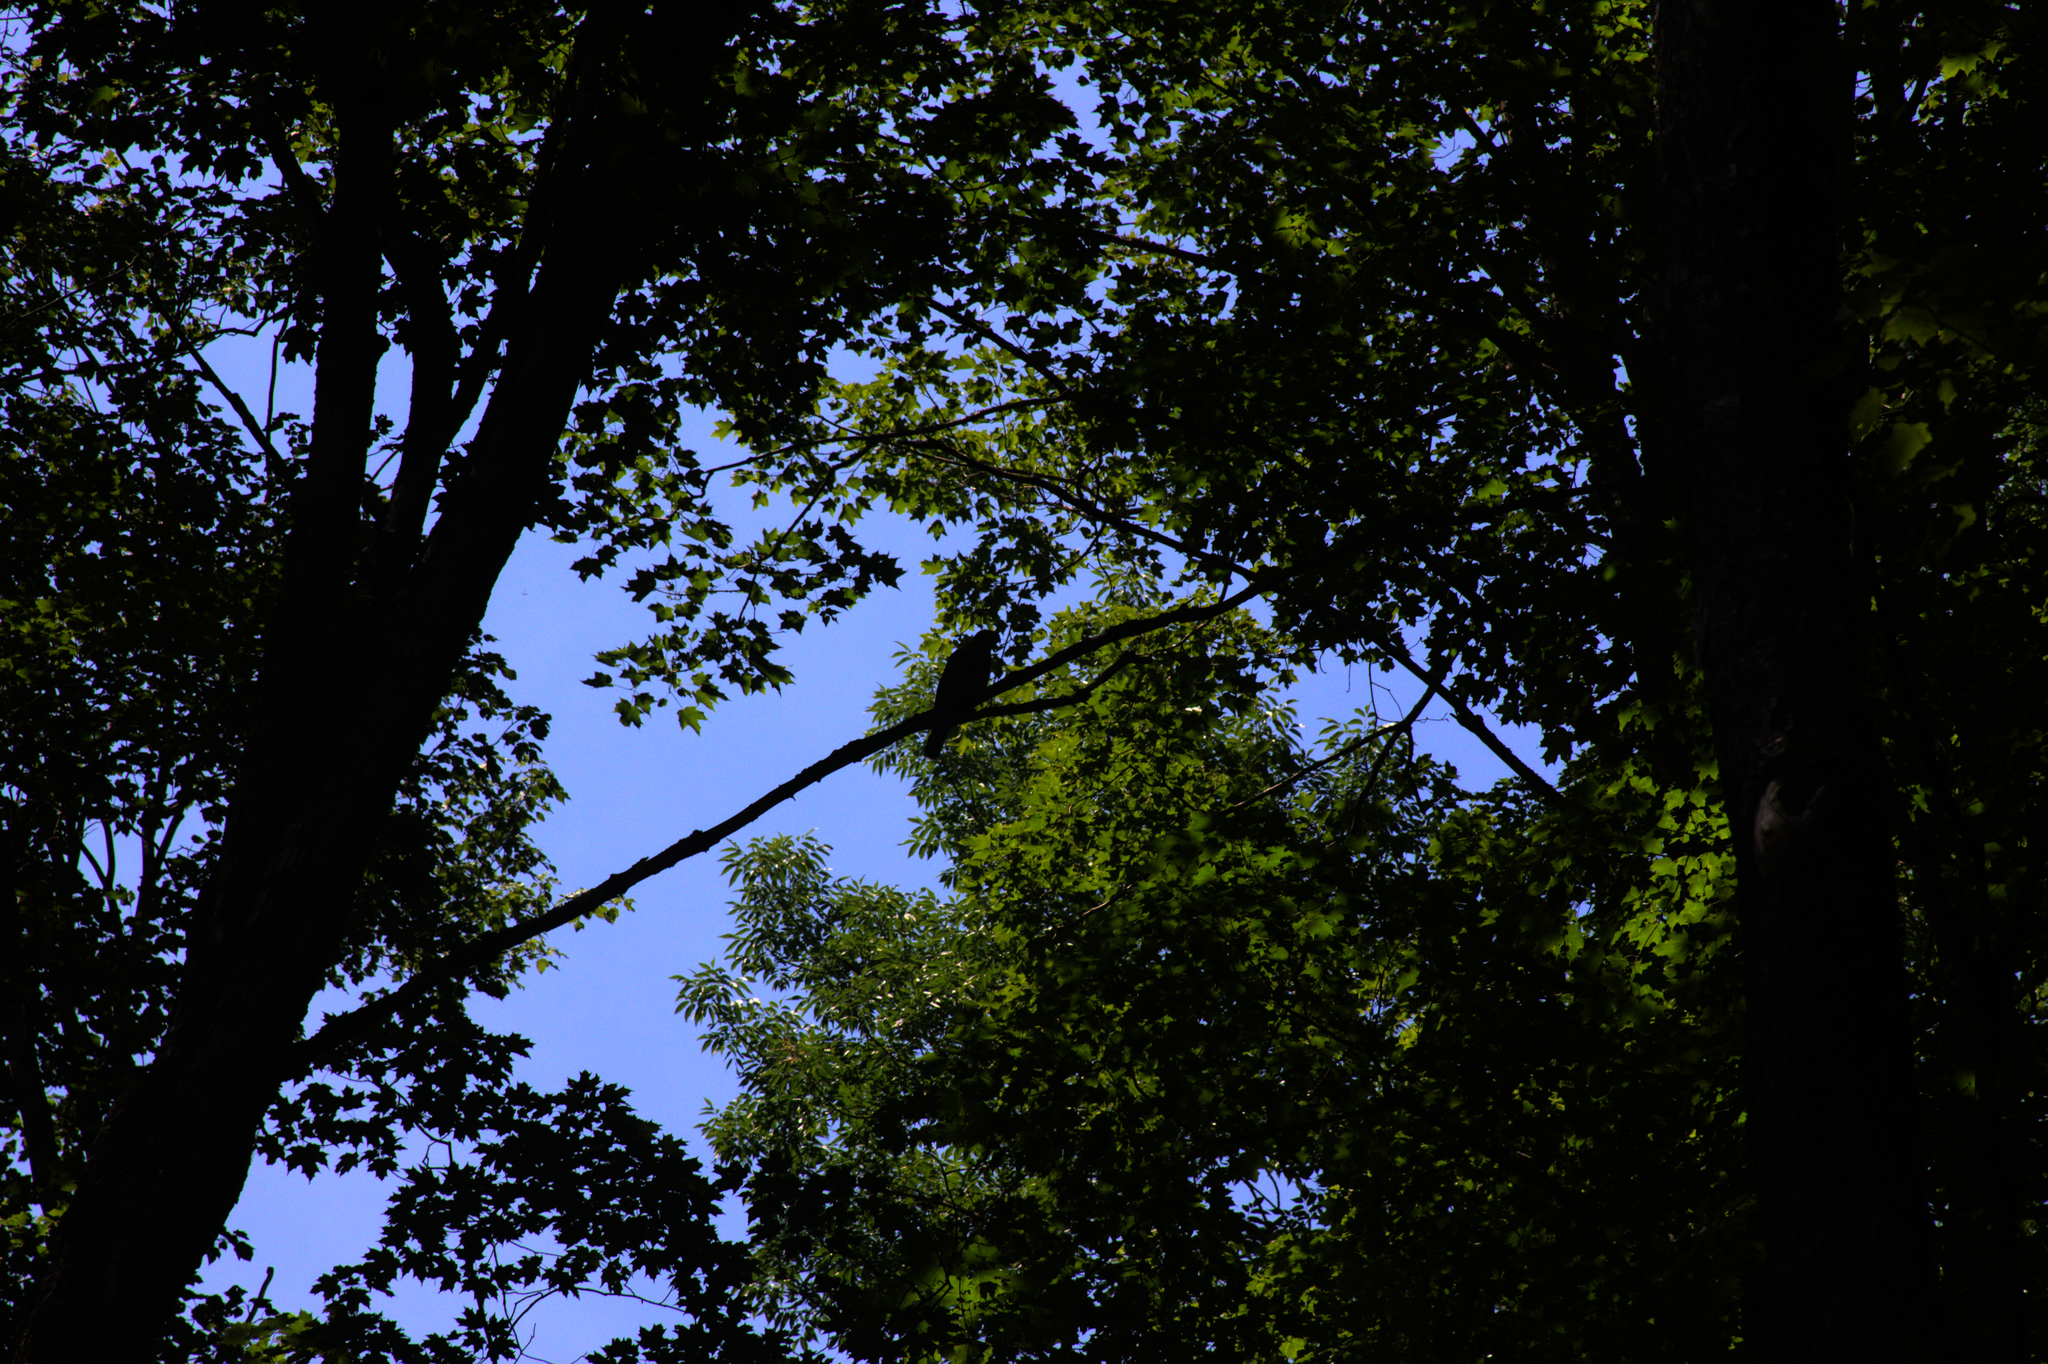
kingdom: Animalia
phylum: Chordata
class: Aves
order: Accipitriformes
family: Accipitridae
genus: Buteo
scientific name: Buteo platypterus
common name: Broad-winged hawk
